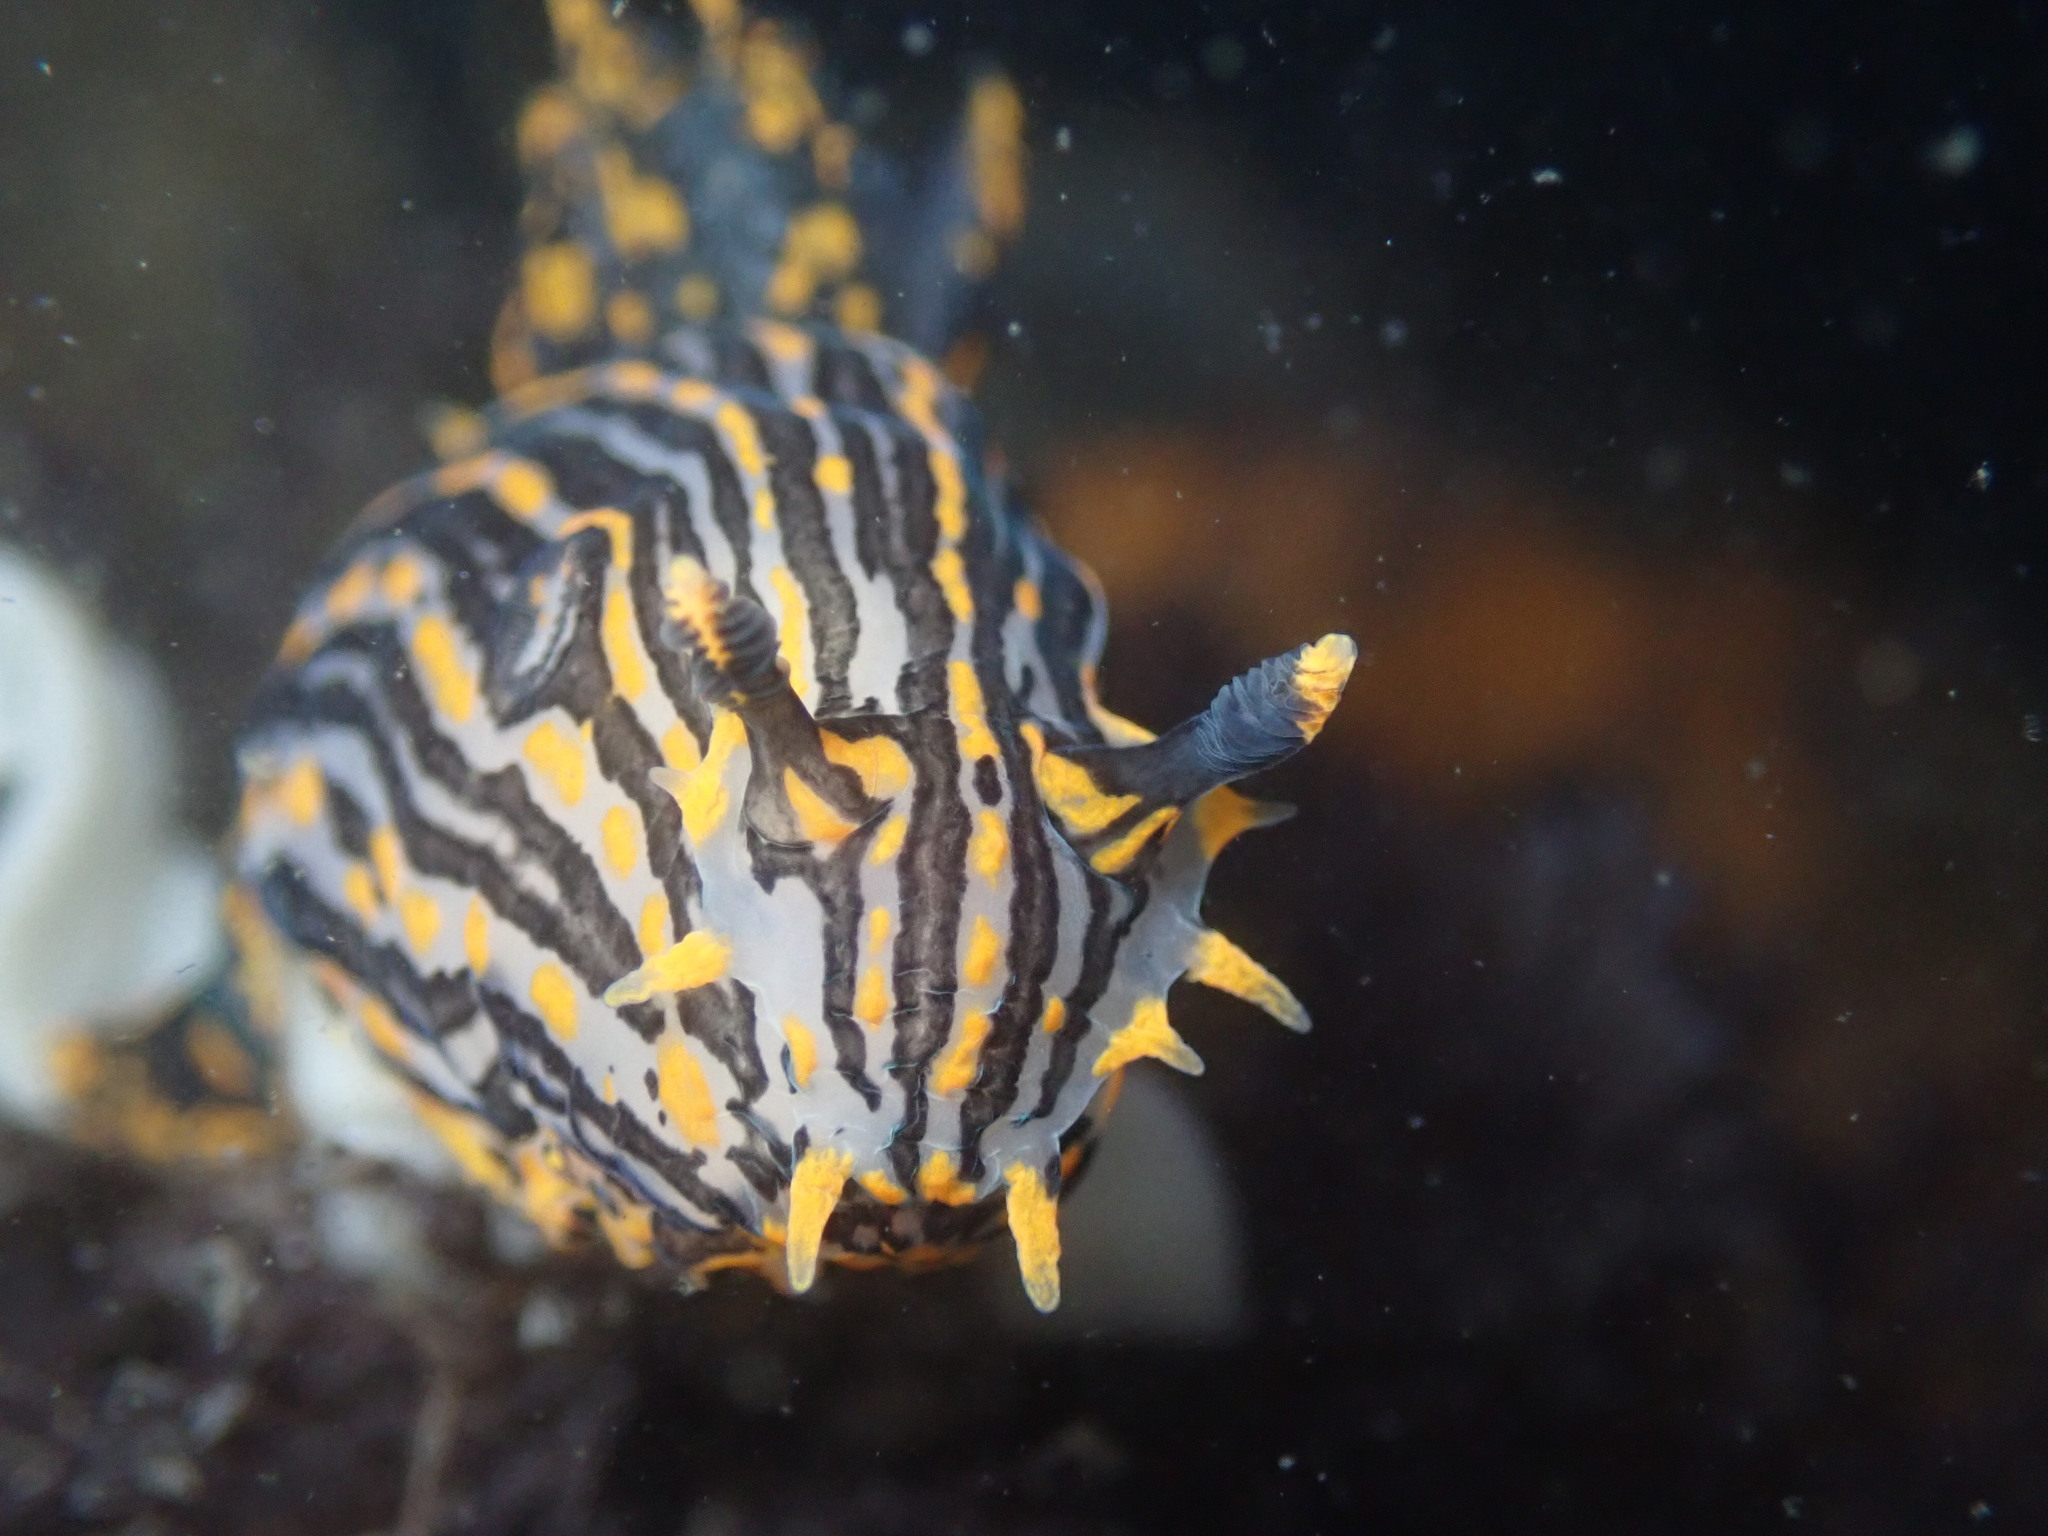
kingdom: Animalia
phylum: Mollusca
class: Gastropoda
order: Nudibranchia
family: Polyceridae
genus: Polycera
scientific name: Polycera atra
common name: Orange-spike polycera
